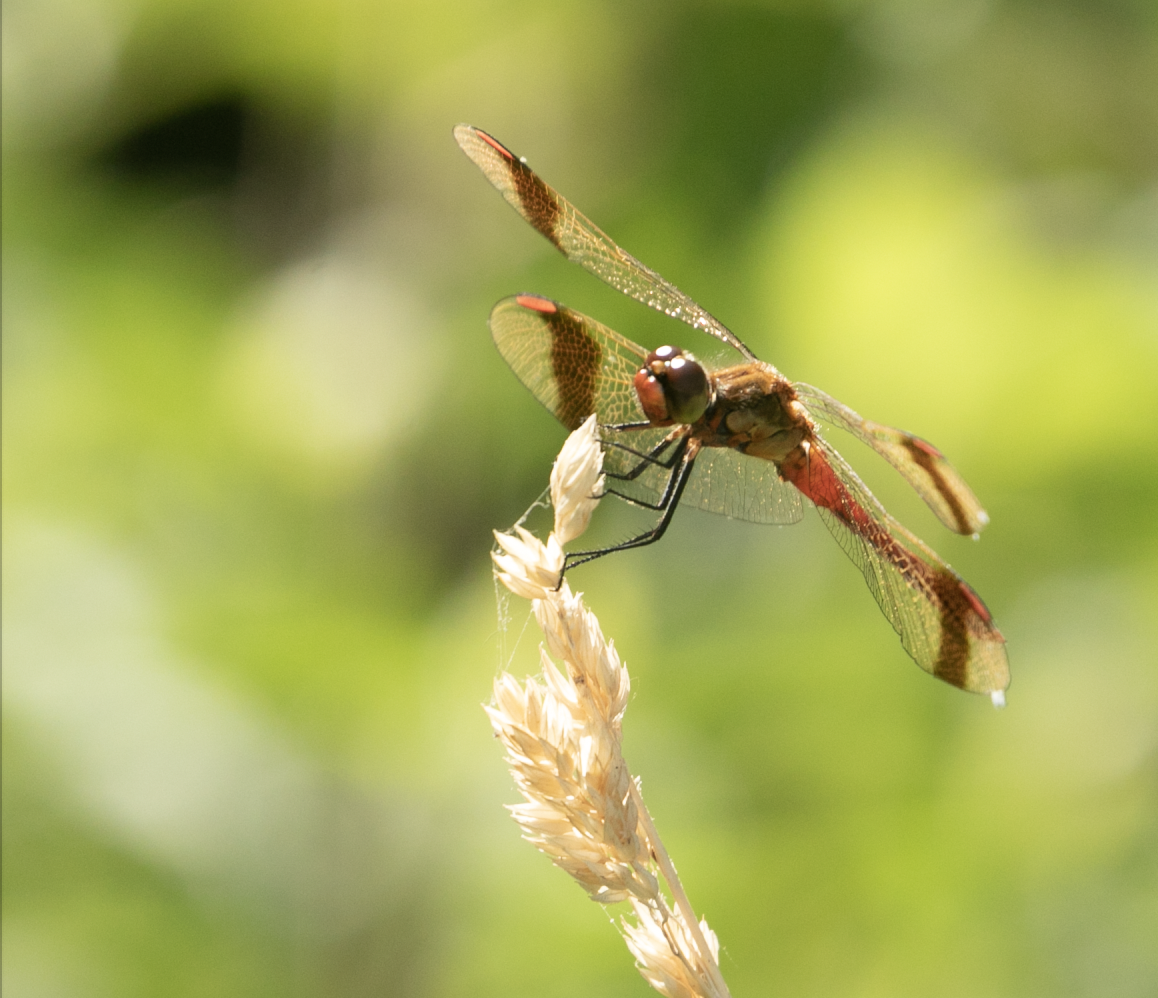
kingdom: Animalia
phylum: Arthropoda
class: Insecta
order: Odonata
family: Libellulidae
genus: Sympetrum
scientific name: Sympetrum pedemontanum
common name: Banded darter
